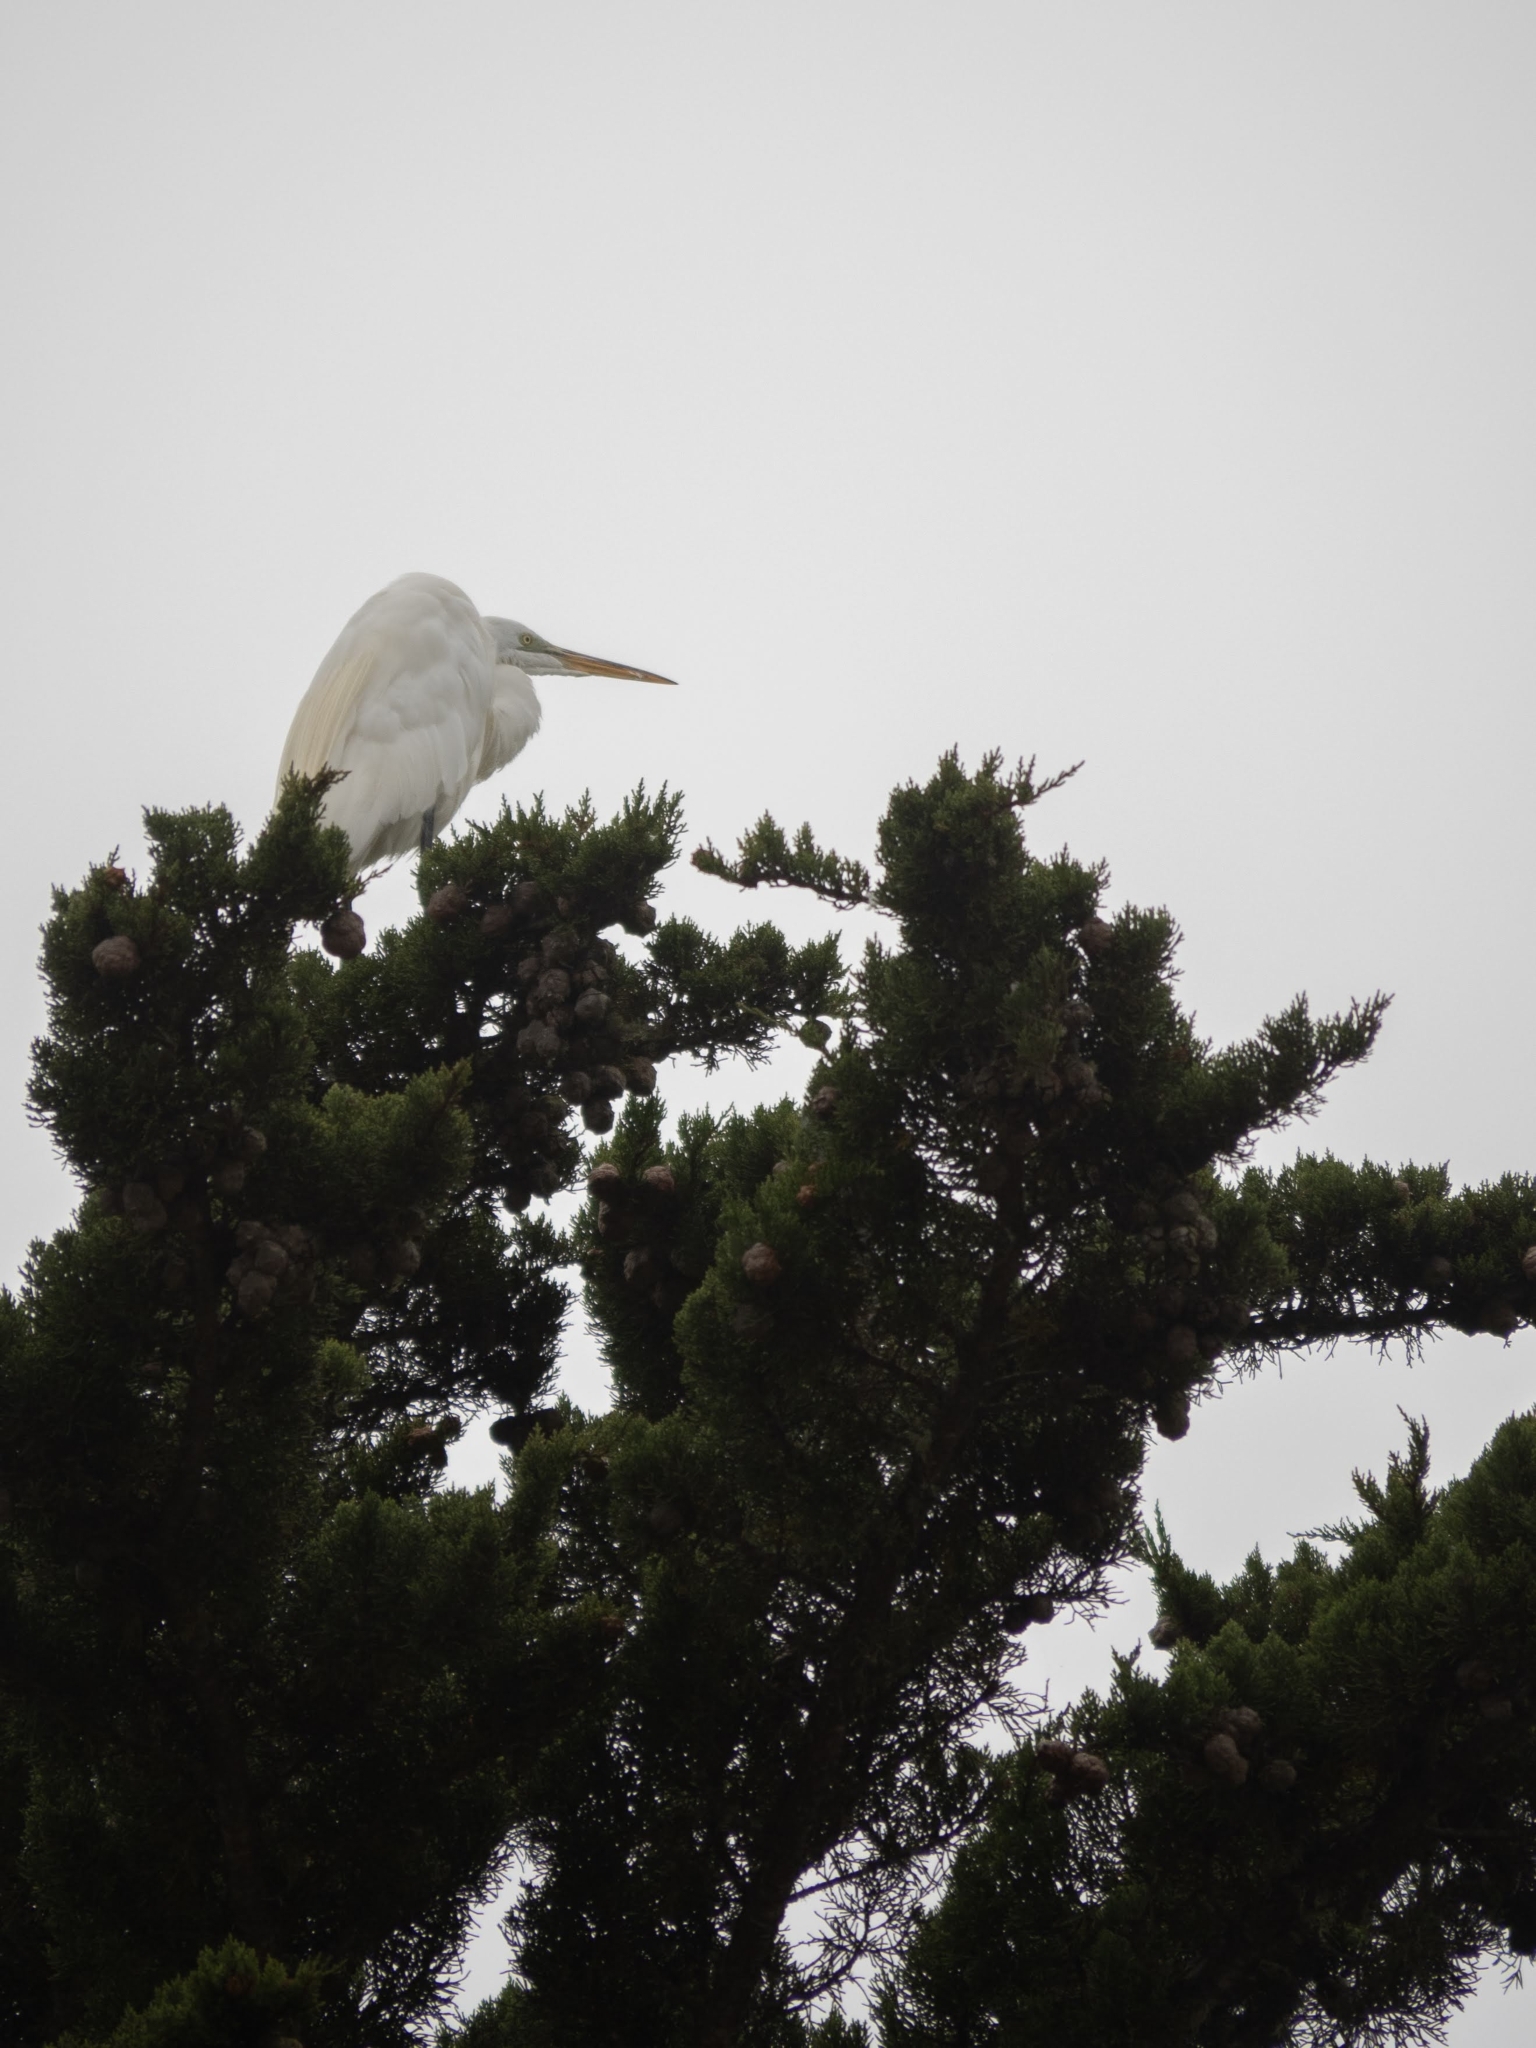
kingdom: Animalia
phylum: Chordata
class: Aves
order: Pelecaniformes
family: Ardeidae
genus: Ardea
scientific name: Ardea alba
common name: Great egret
